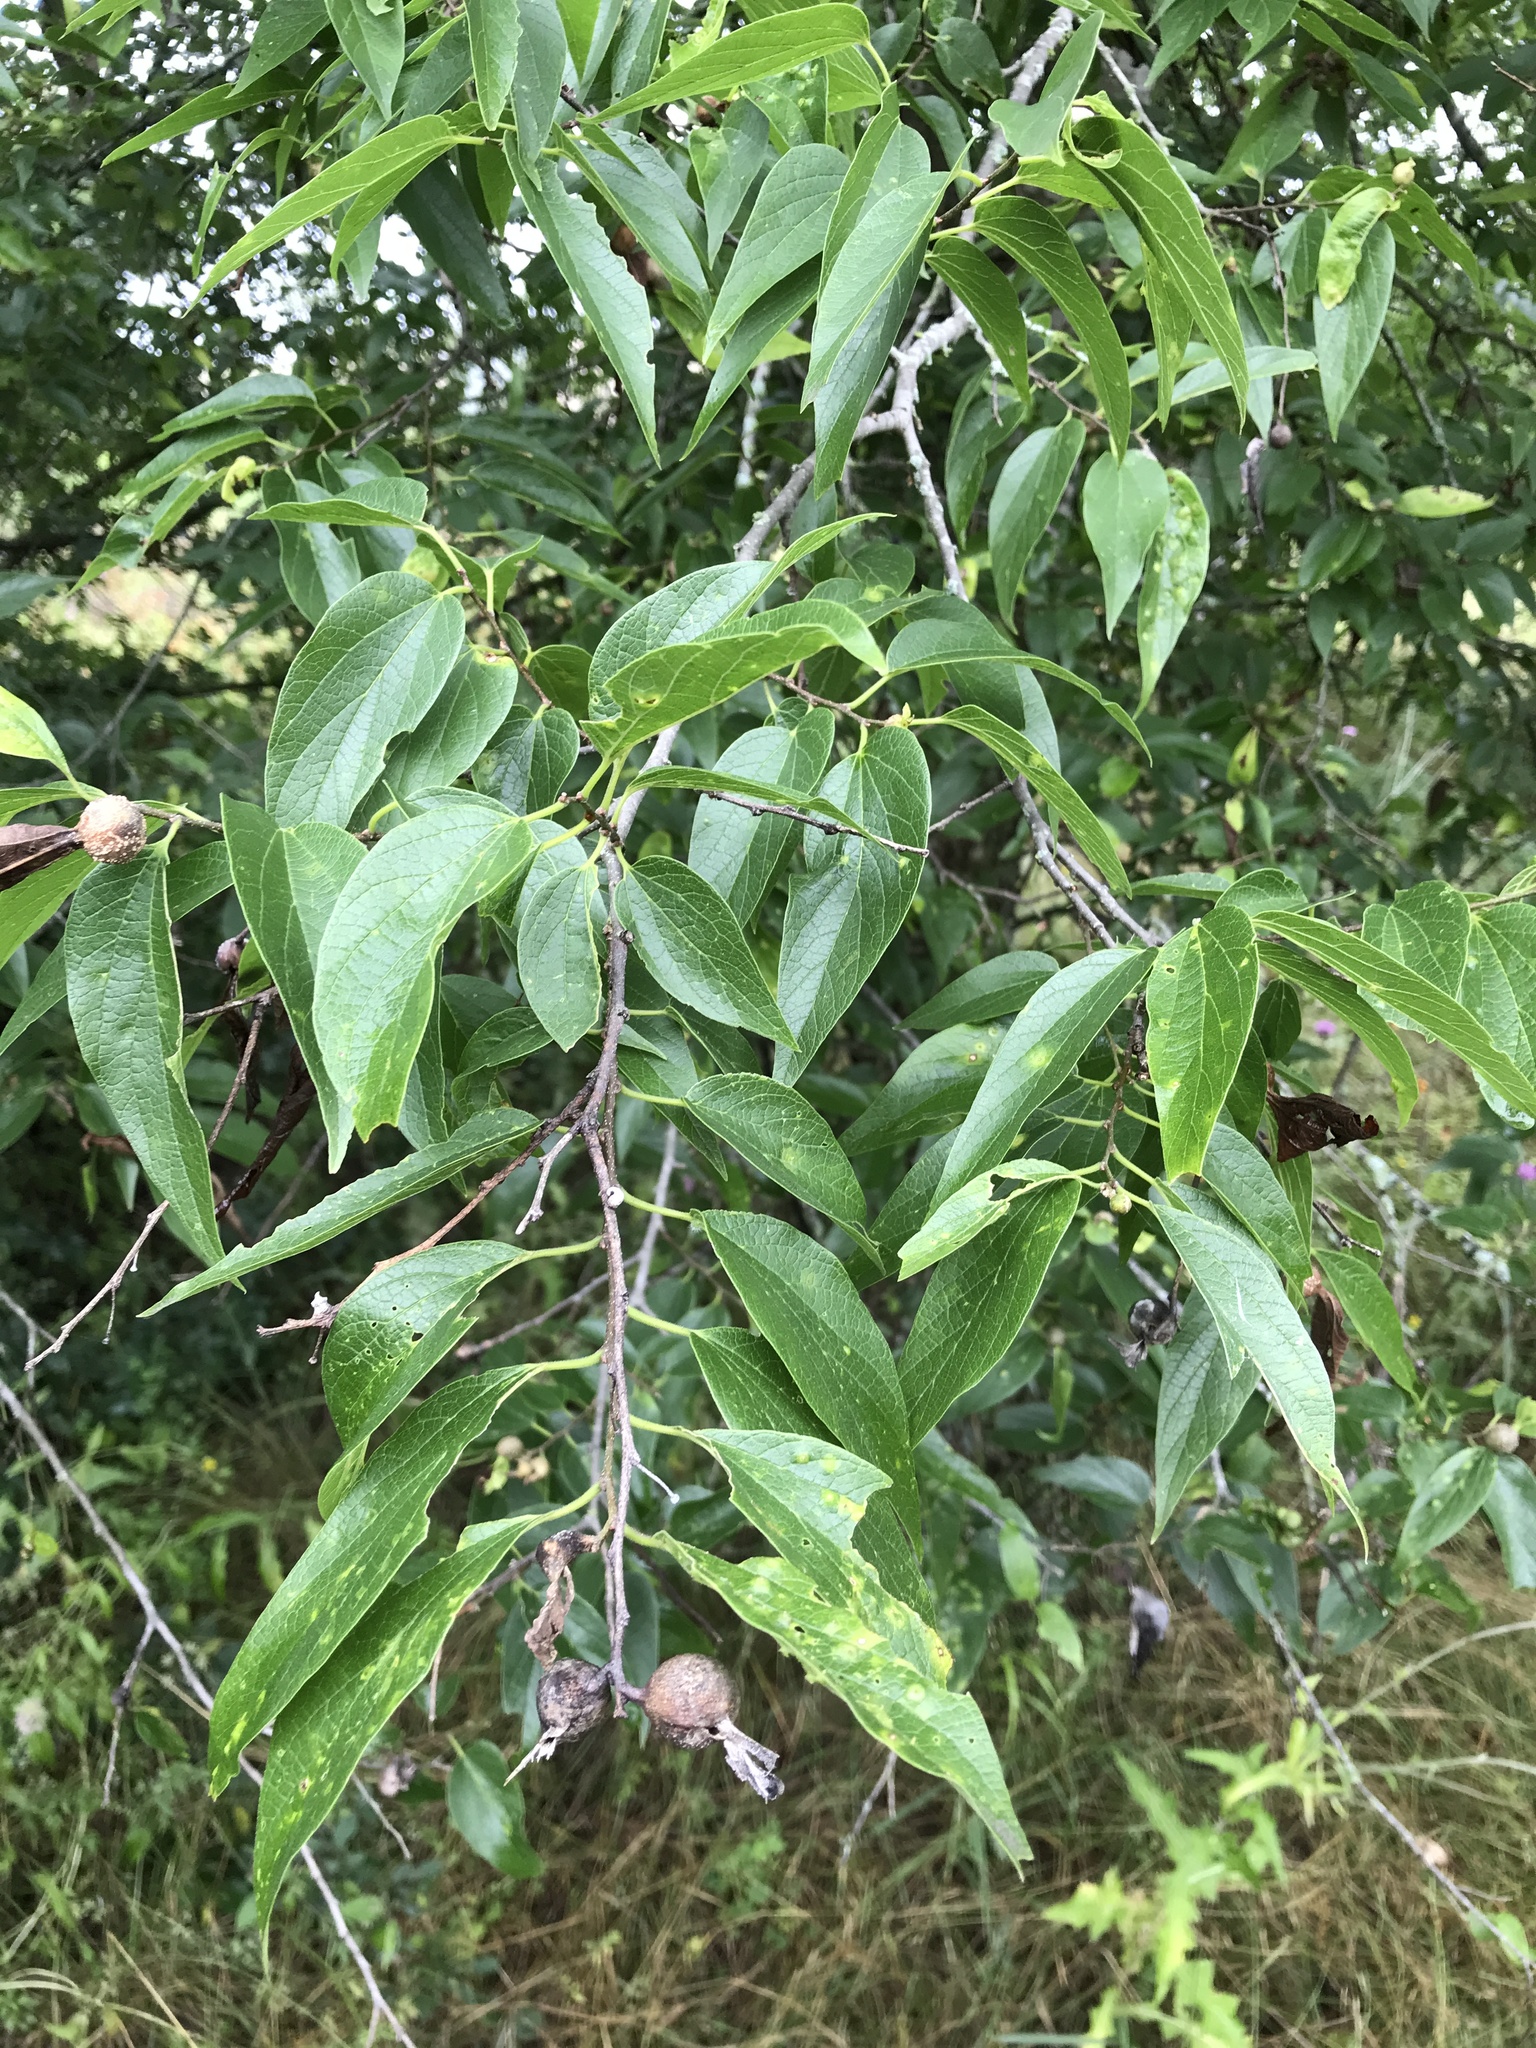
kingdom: Plantae
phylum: Tracheophyta
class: Magnoliopsida
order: Rosales
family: Cannabaceae
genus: Celtis
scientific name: Celtis laevigata
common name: Sugarberry
